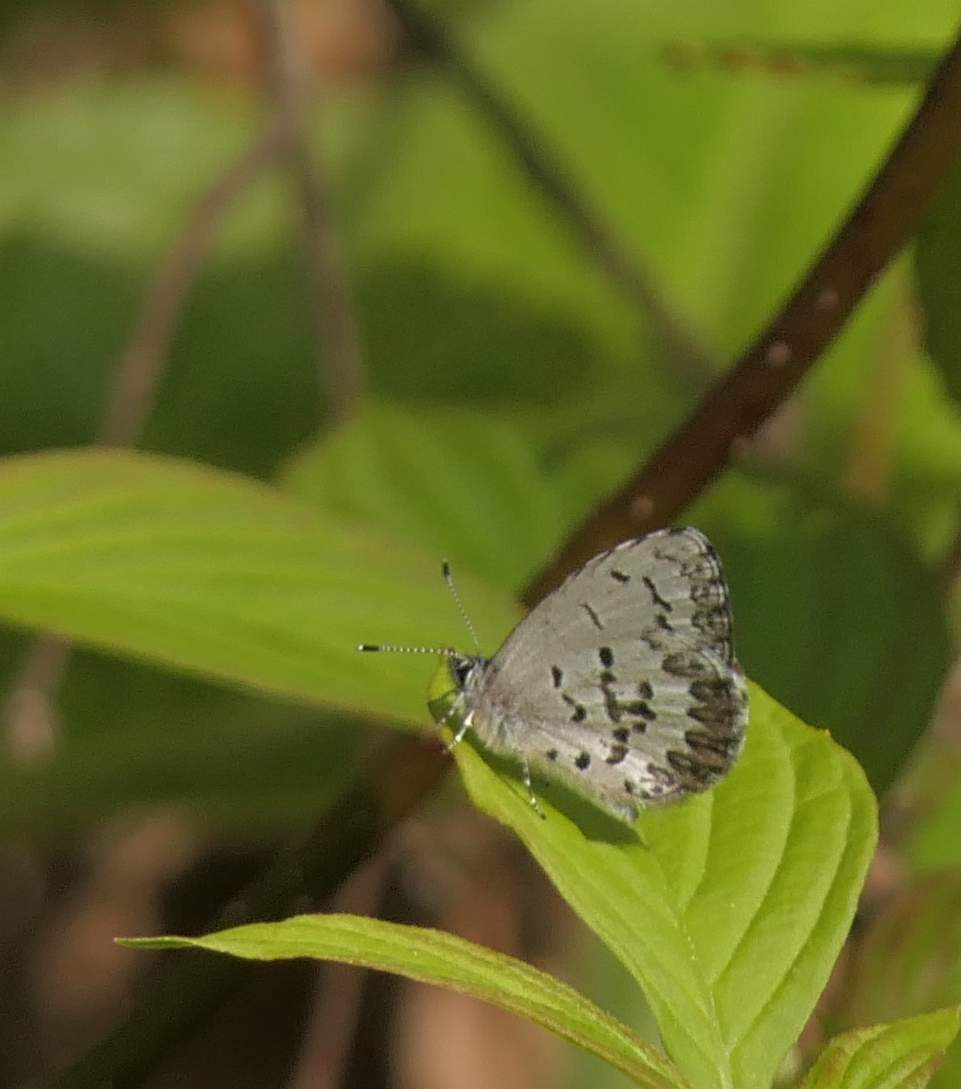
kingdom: Animalia
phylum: Arthropoda
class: Insecta
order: Lepidoptera
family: Lycaenidae
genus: Celastrina
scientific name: Celastrina lucia
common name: Lucia azure
